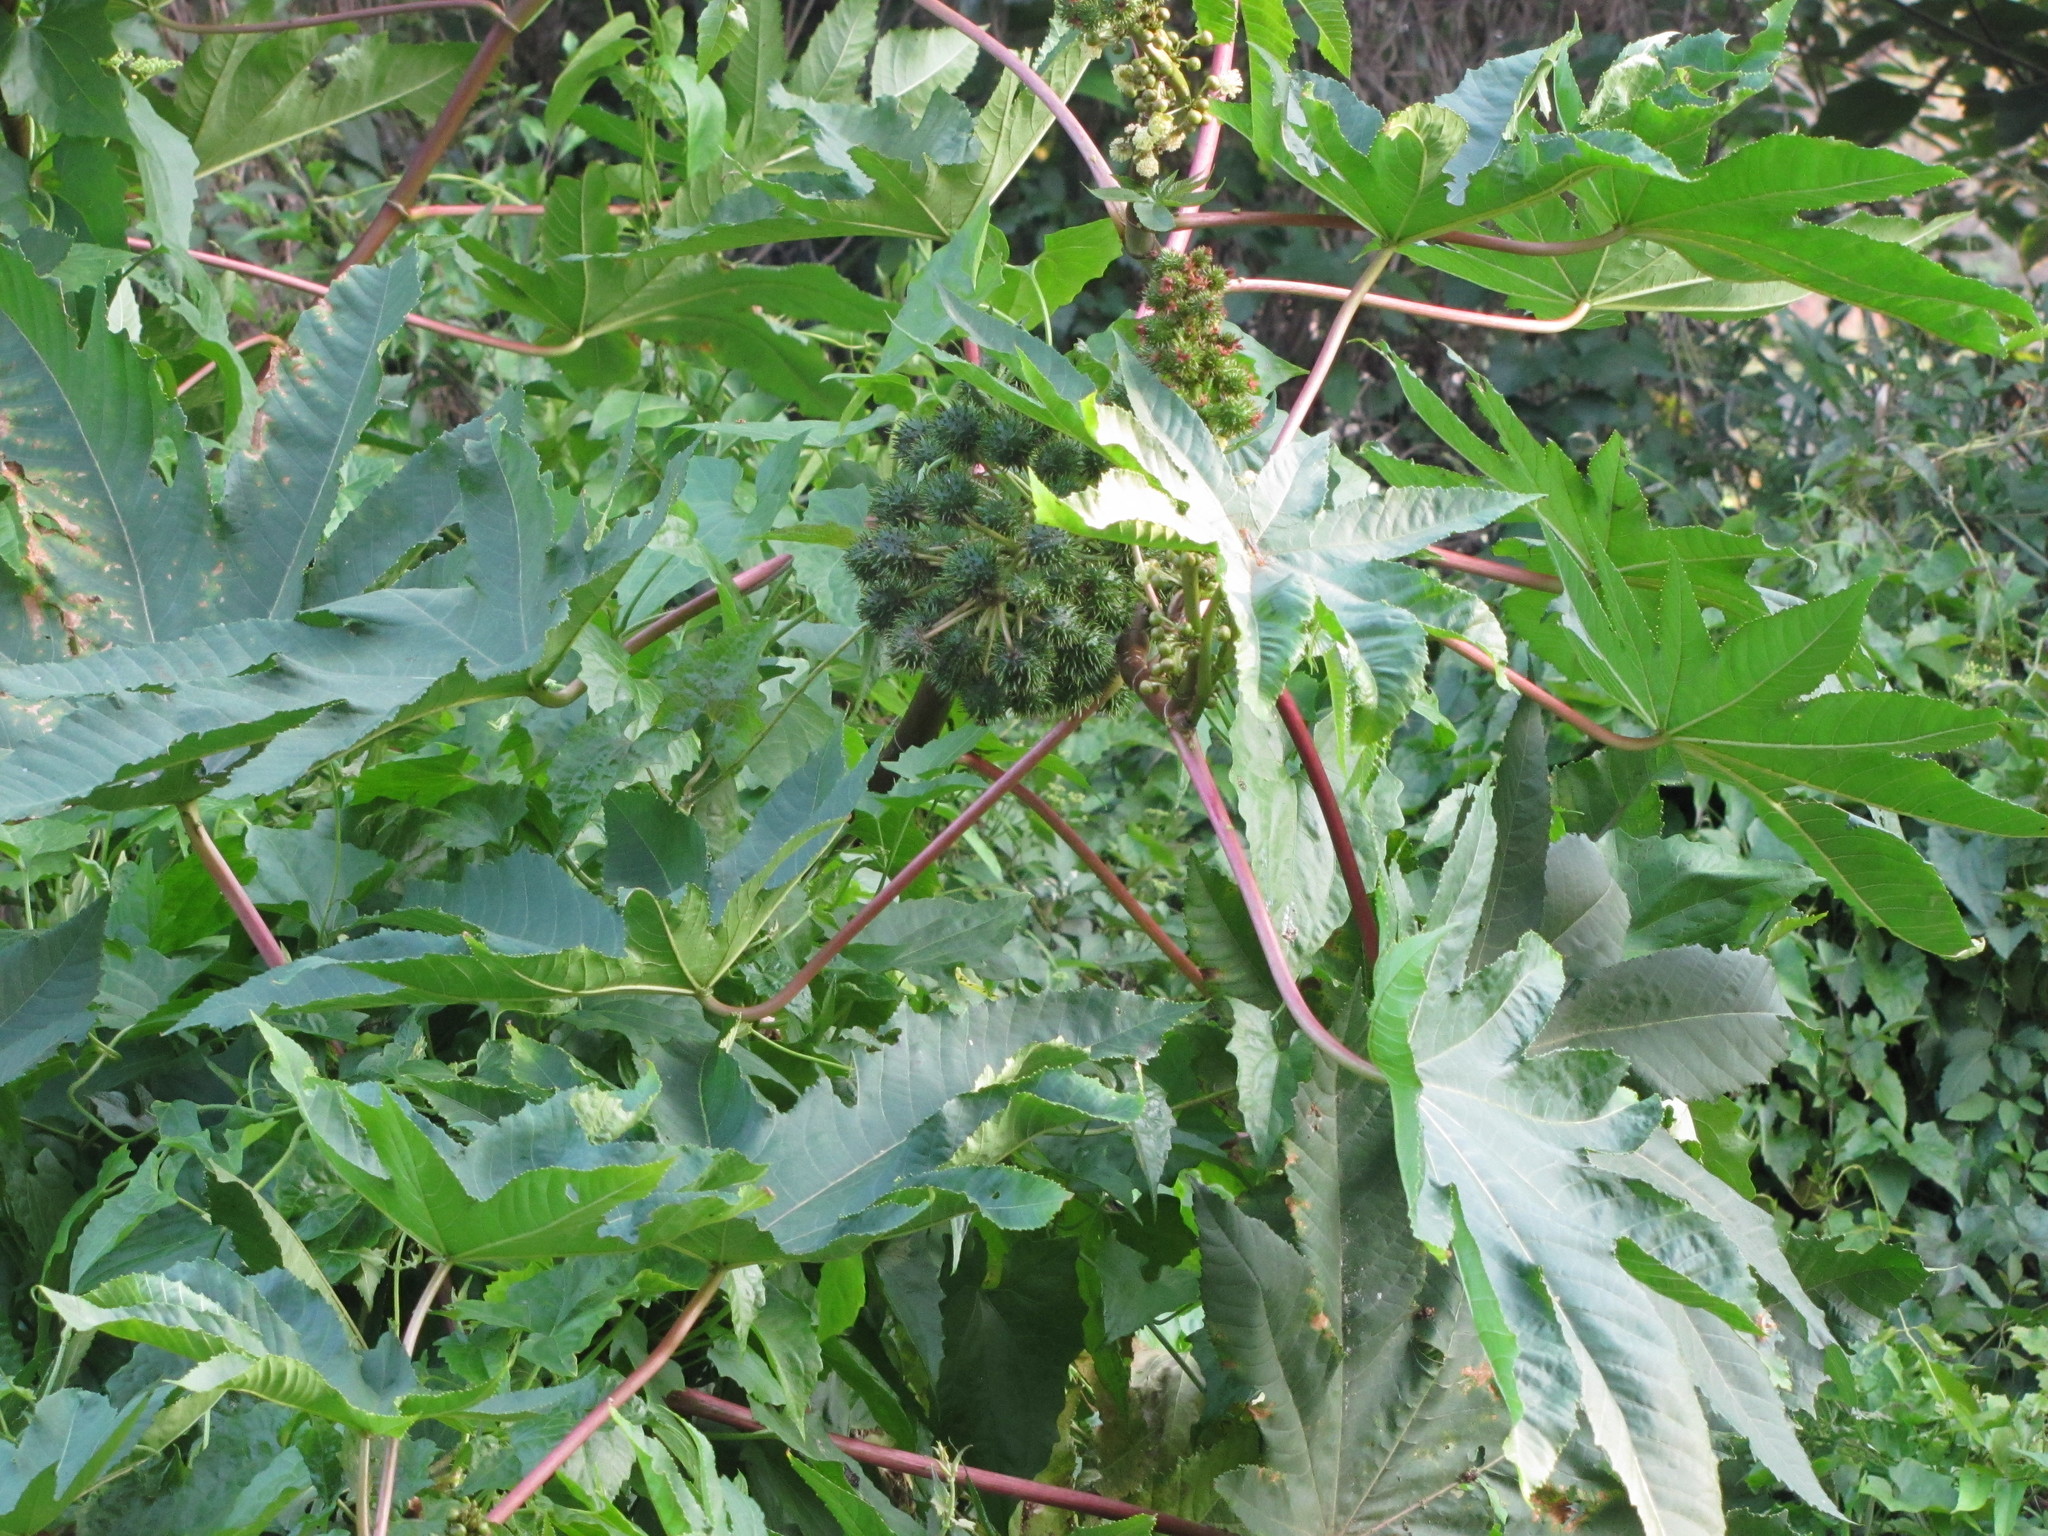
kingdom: Plantae
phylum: Tracheophyta
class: Magnoliopsida
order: Malpighiales
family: Euphorbiaceae
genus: Ricinus
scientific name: Ricinus communis
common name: Castor-oil-plant
